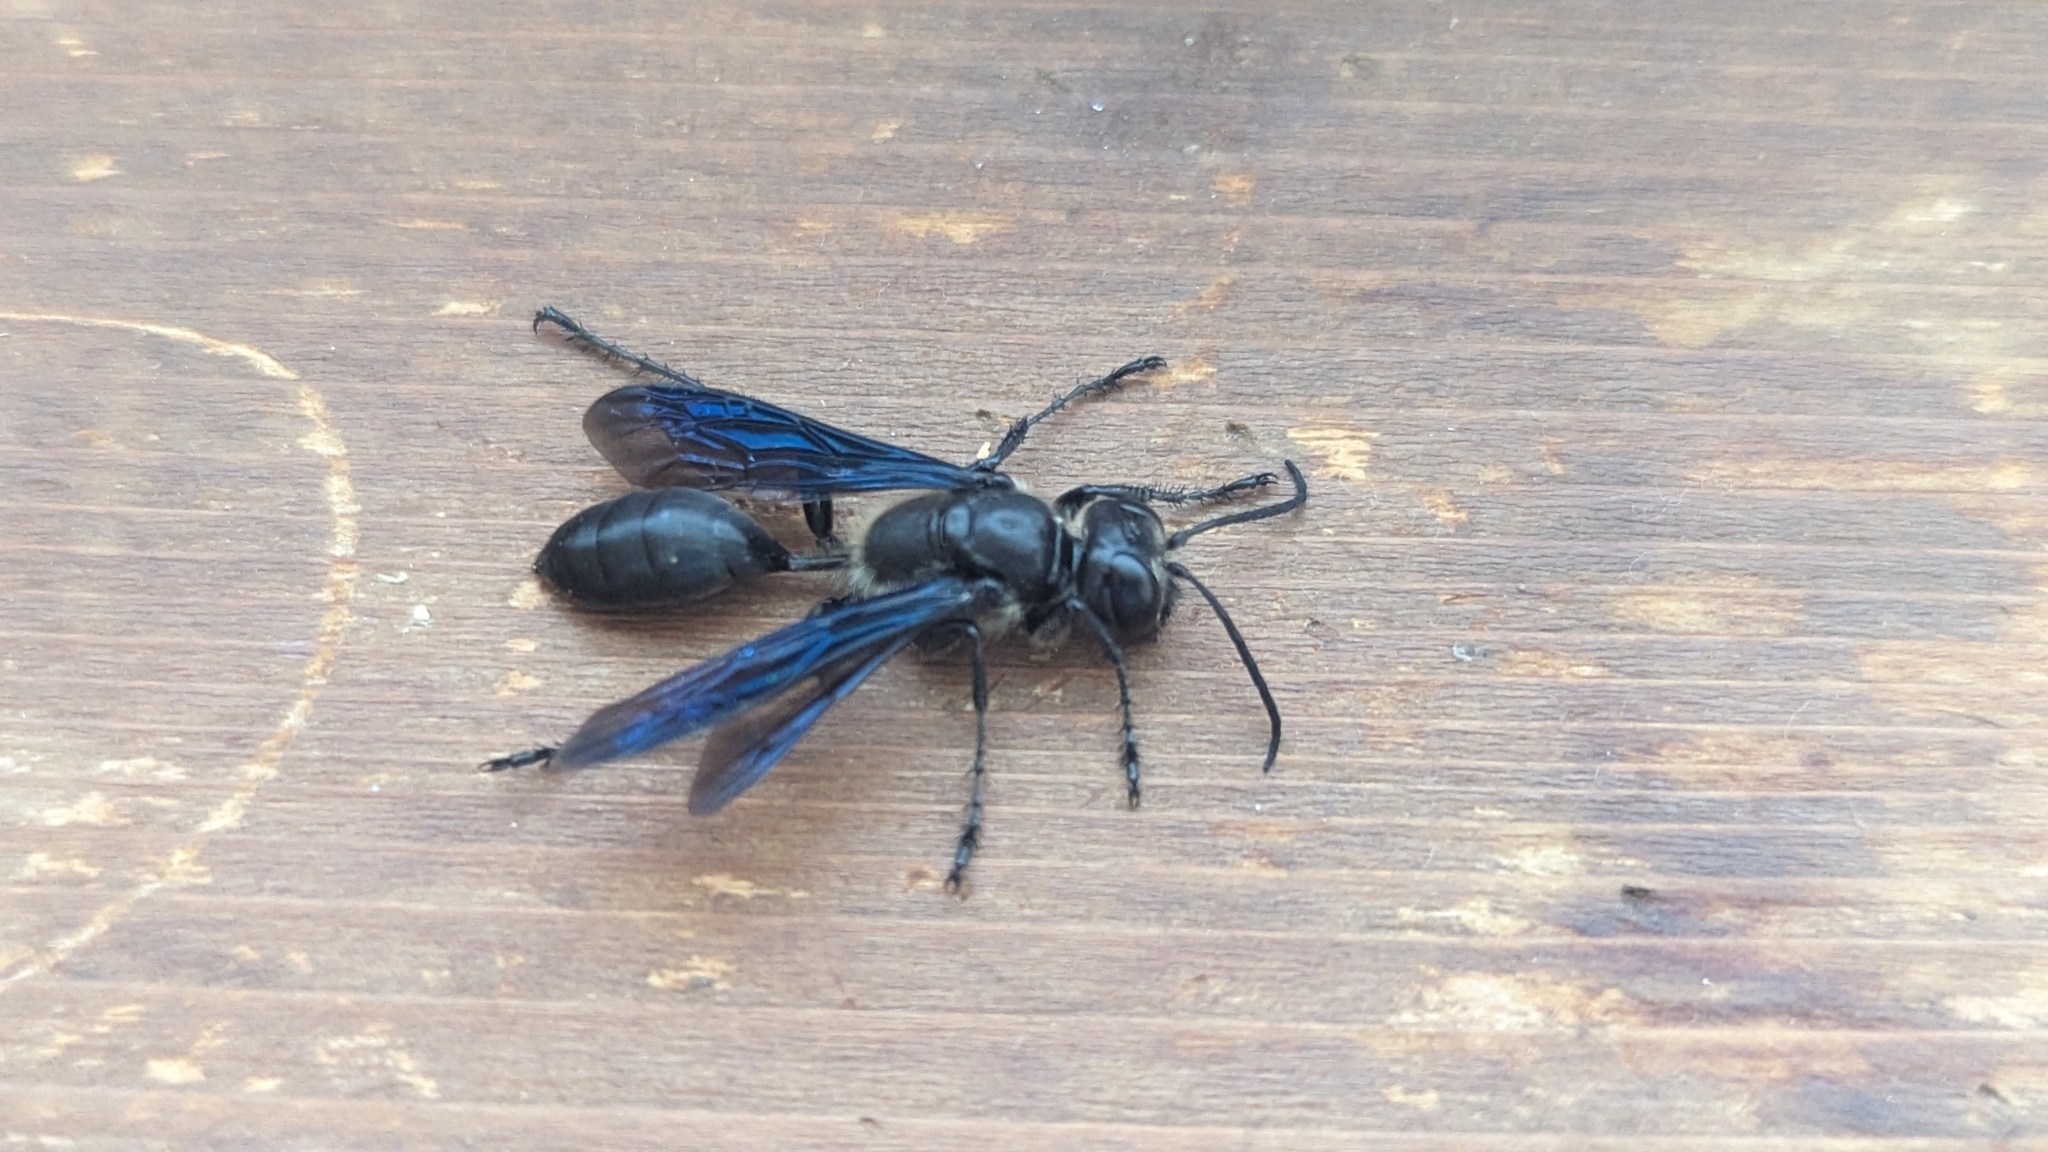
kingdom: Animalia
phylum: Arthropoda
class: Insecta
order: Hymenoptera
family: Sphecidae
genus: Isodontia
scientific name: Isodontia apicalis
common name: Mud dauber
